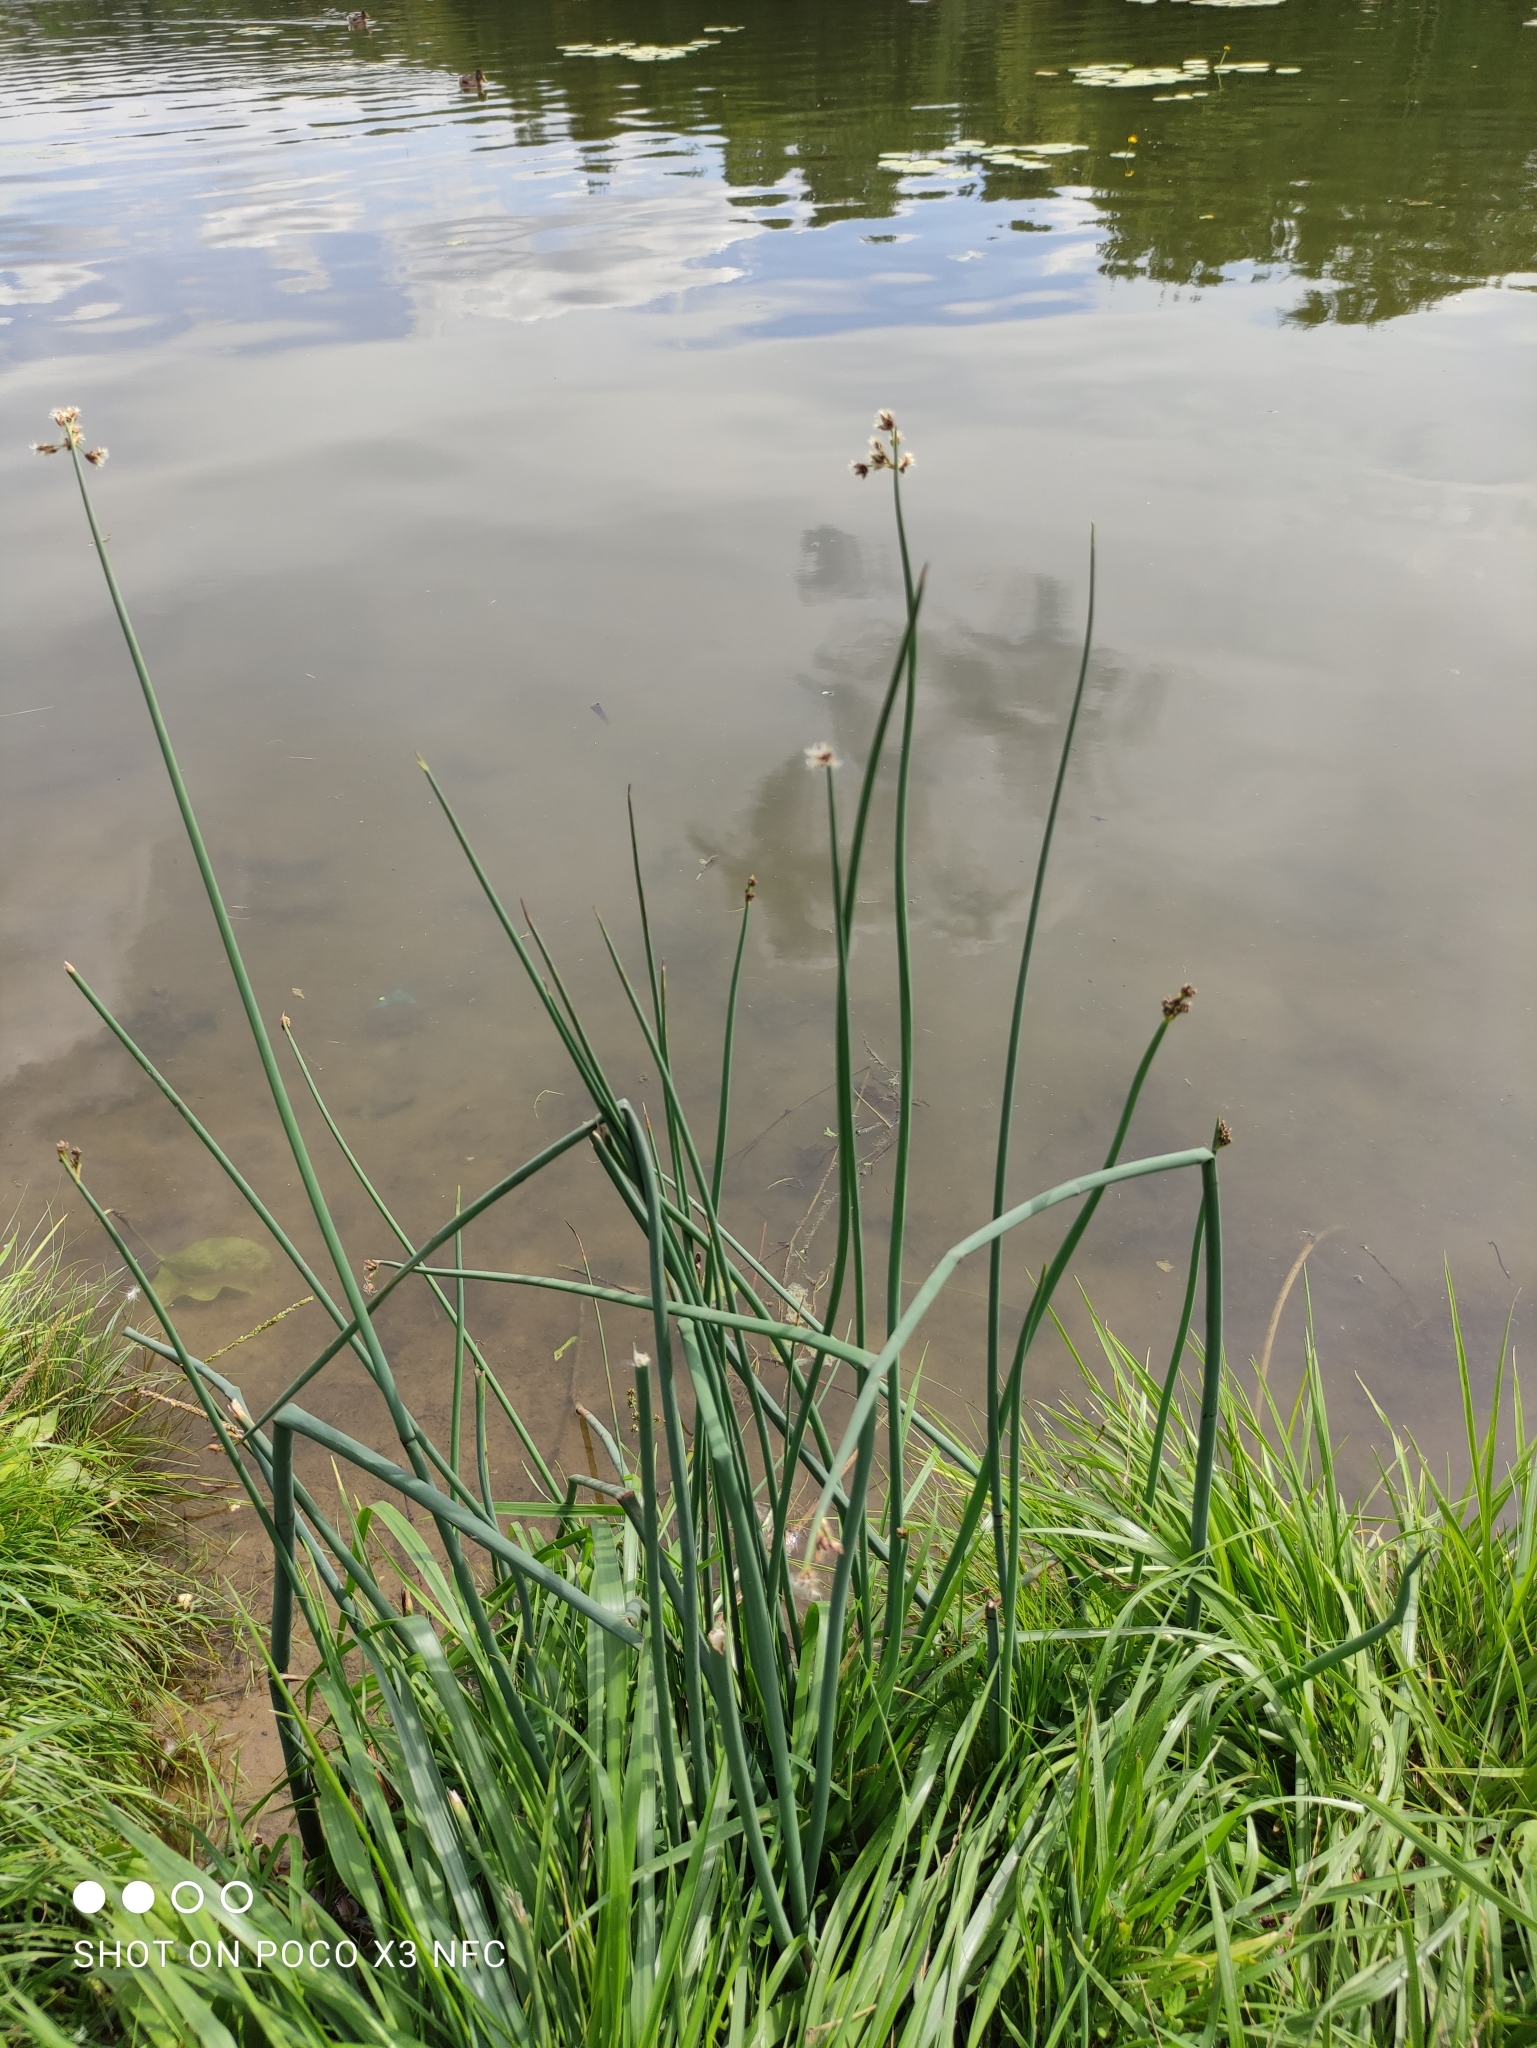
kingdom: Plantae
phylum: Tracheophyta
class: Liliopsida
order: Poales
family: Cyperaceae
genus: Schoenoplectus
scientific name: Schoenoplectus lacustris
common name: Common club-rush
